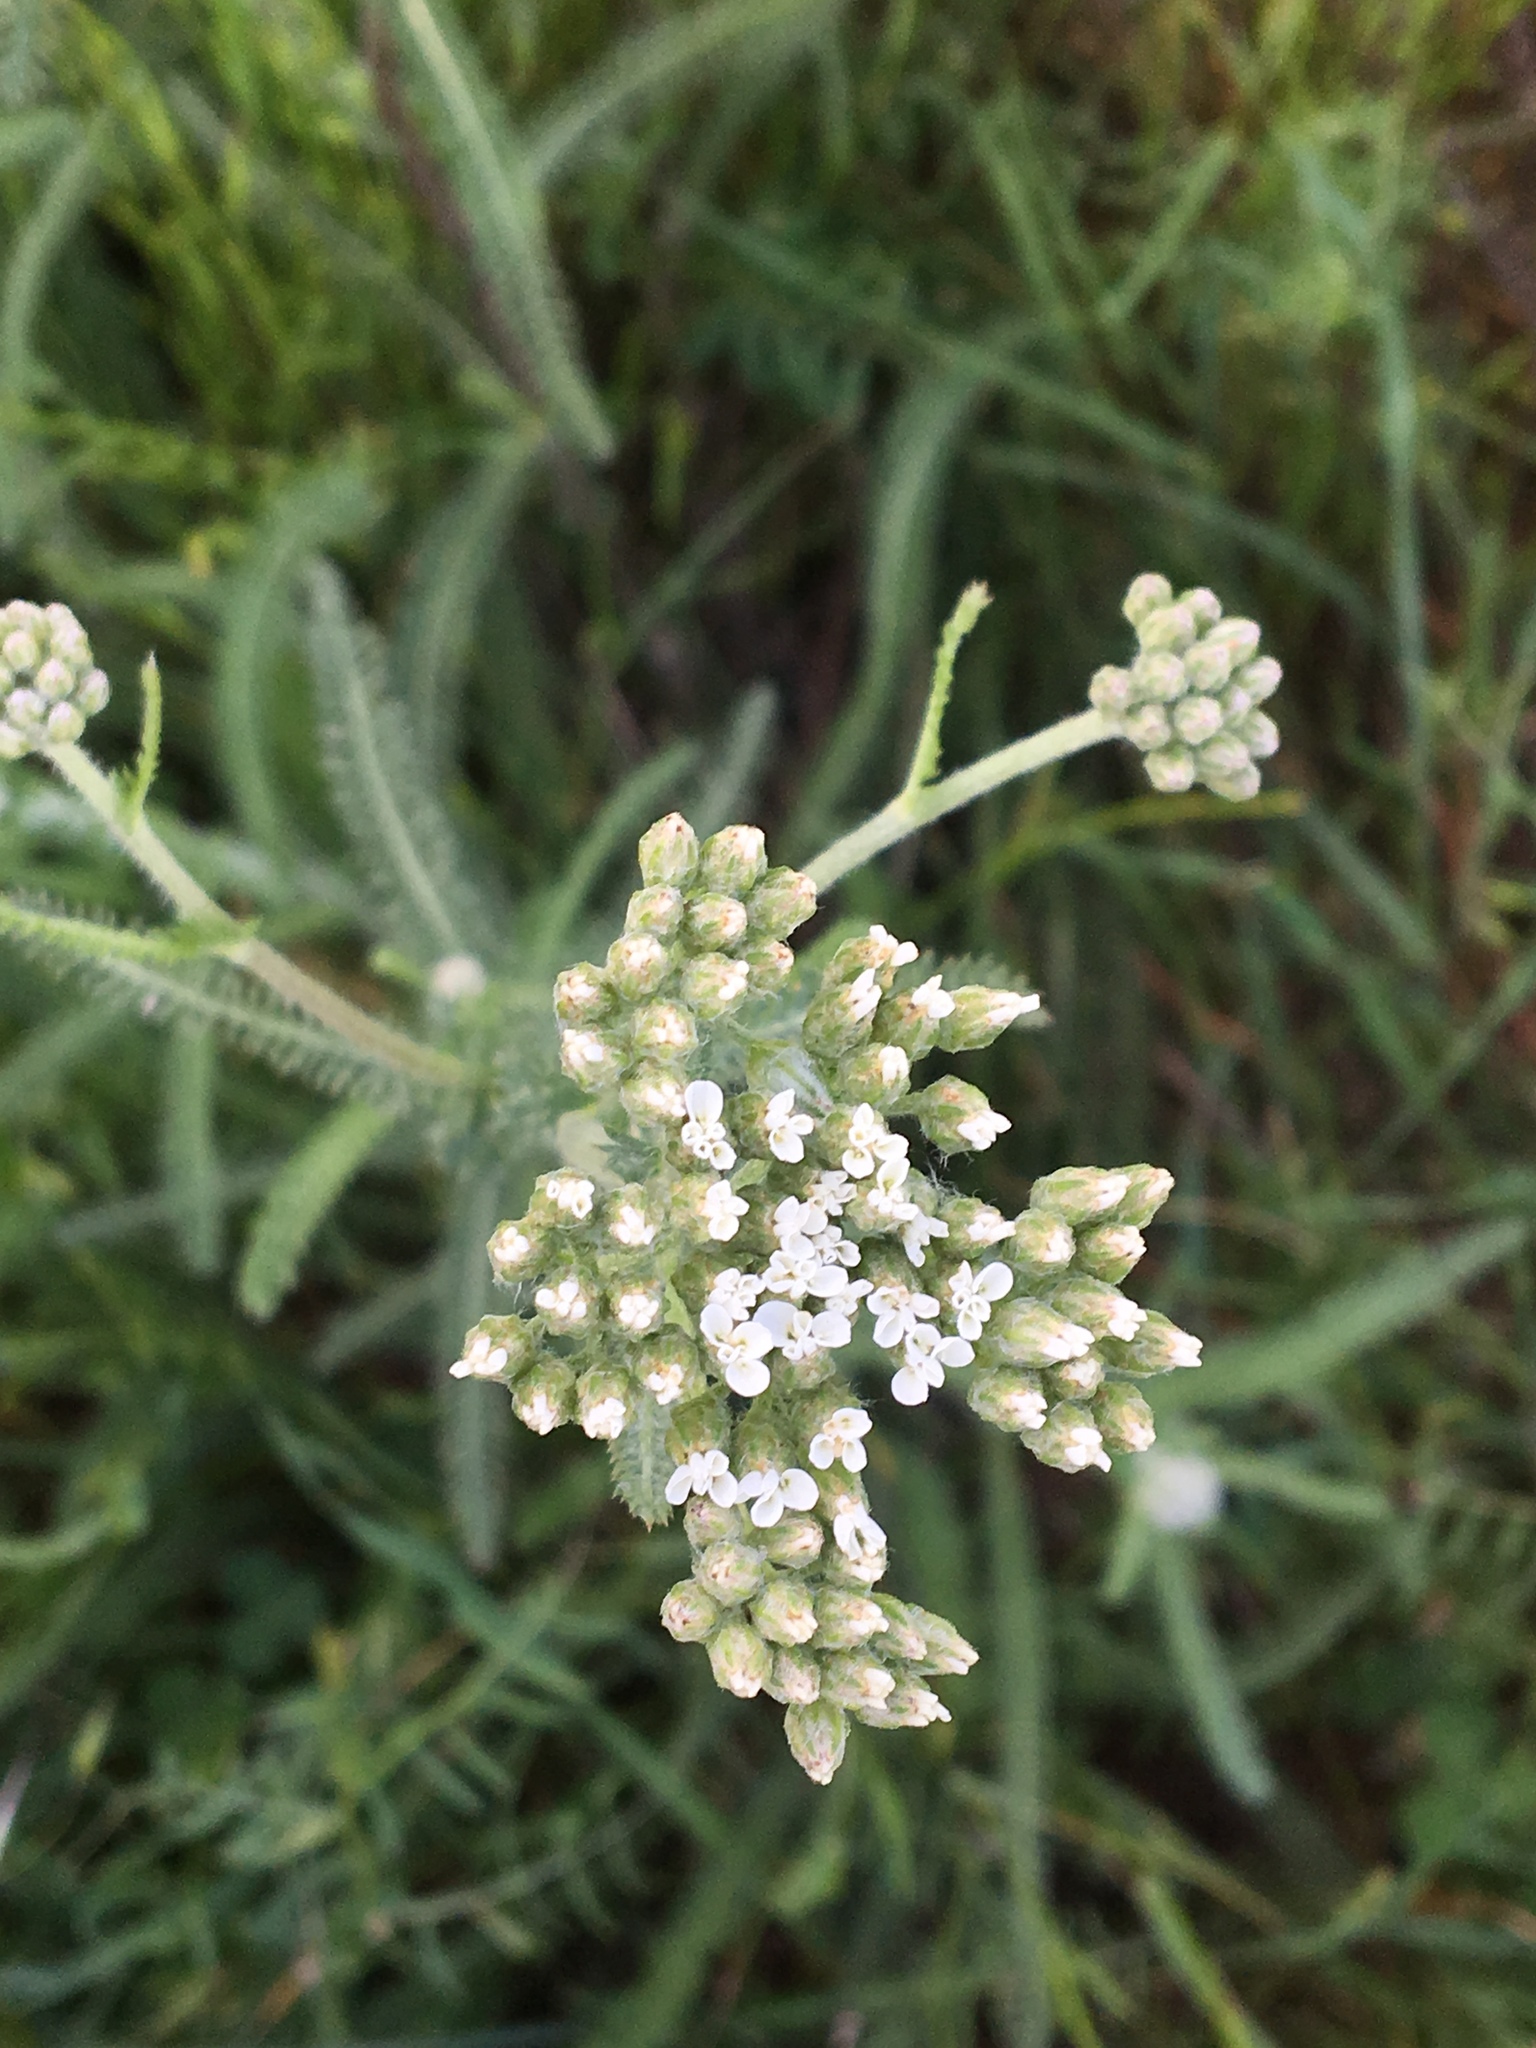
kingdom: Plantae
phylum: Tracheophyta
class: Magnoliopsida
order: Asterales
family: Asteraceae
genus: Achillea
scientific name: Achillea millefolium
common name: Yarrow
